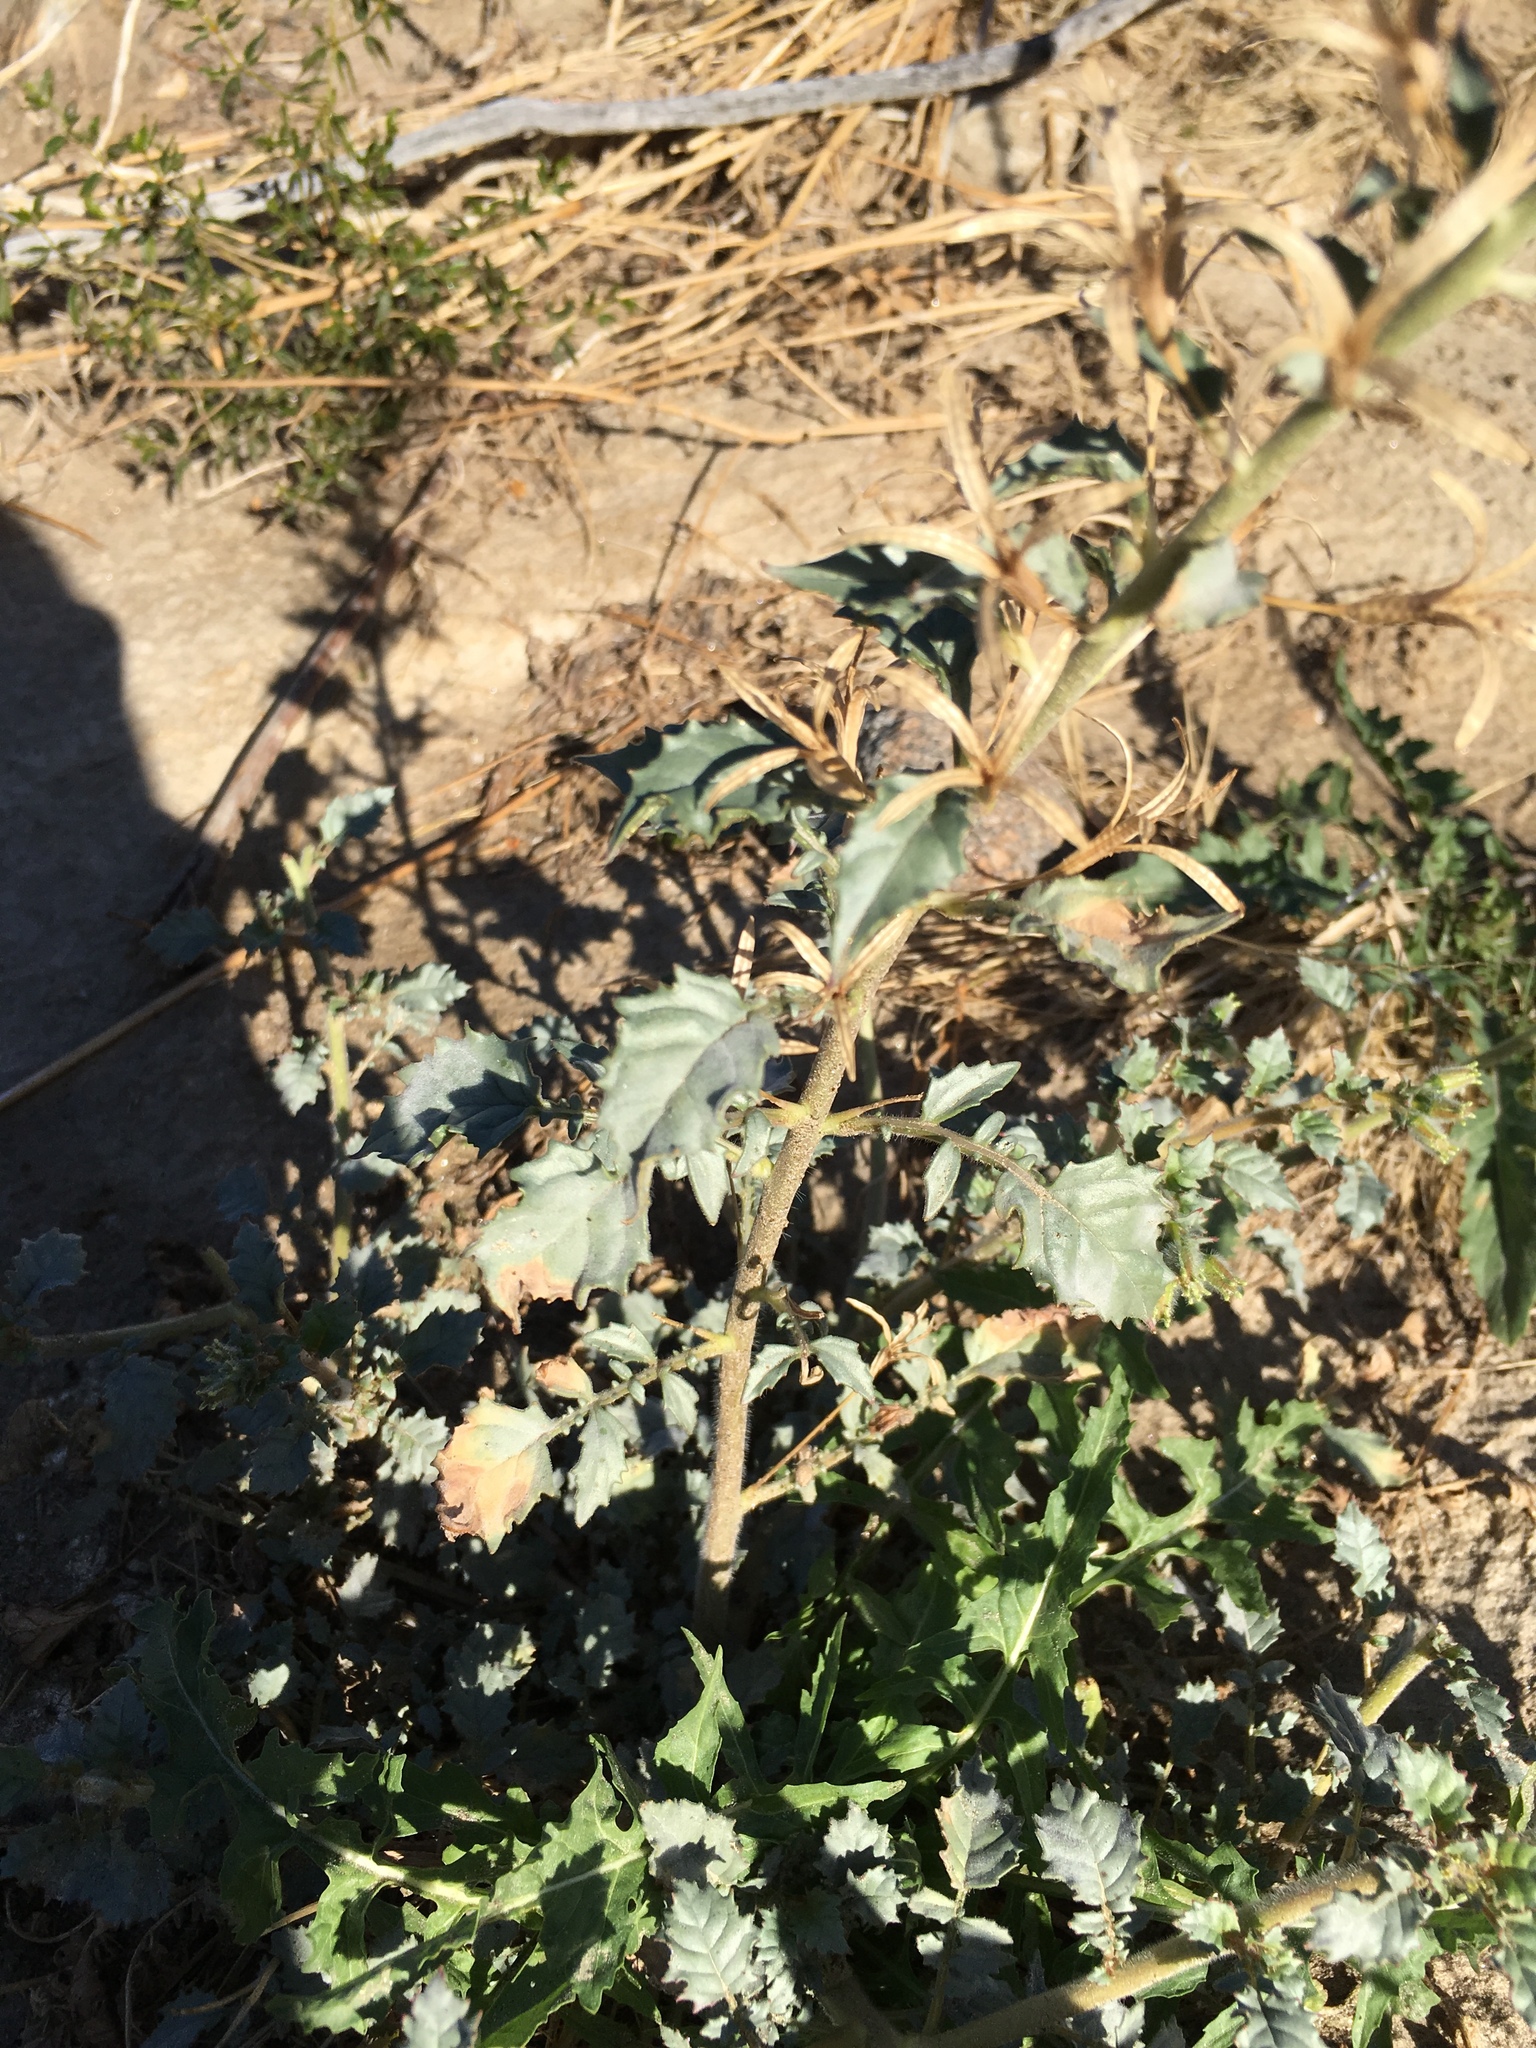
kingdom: Plantae
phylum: Tracheophyta
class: Magnoliopsida
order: Myrtales
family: Onagraceae
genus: Chylismia
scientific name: Chylismia claviformis
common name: Browneyes
